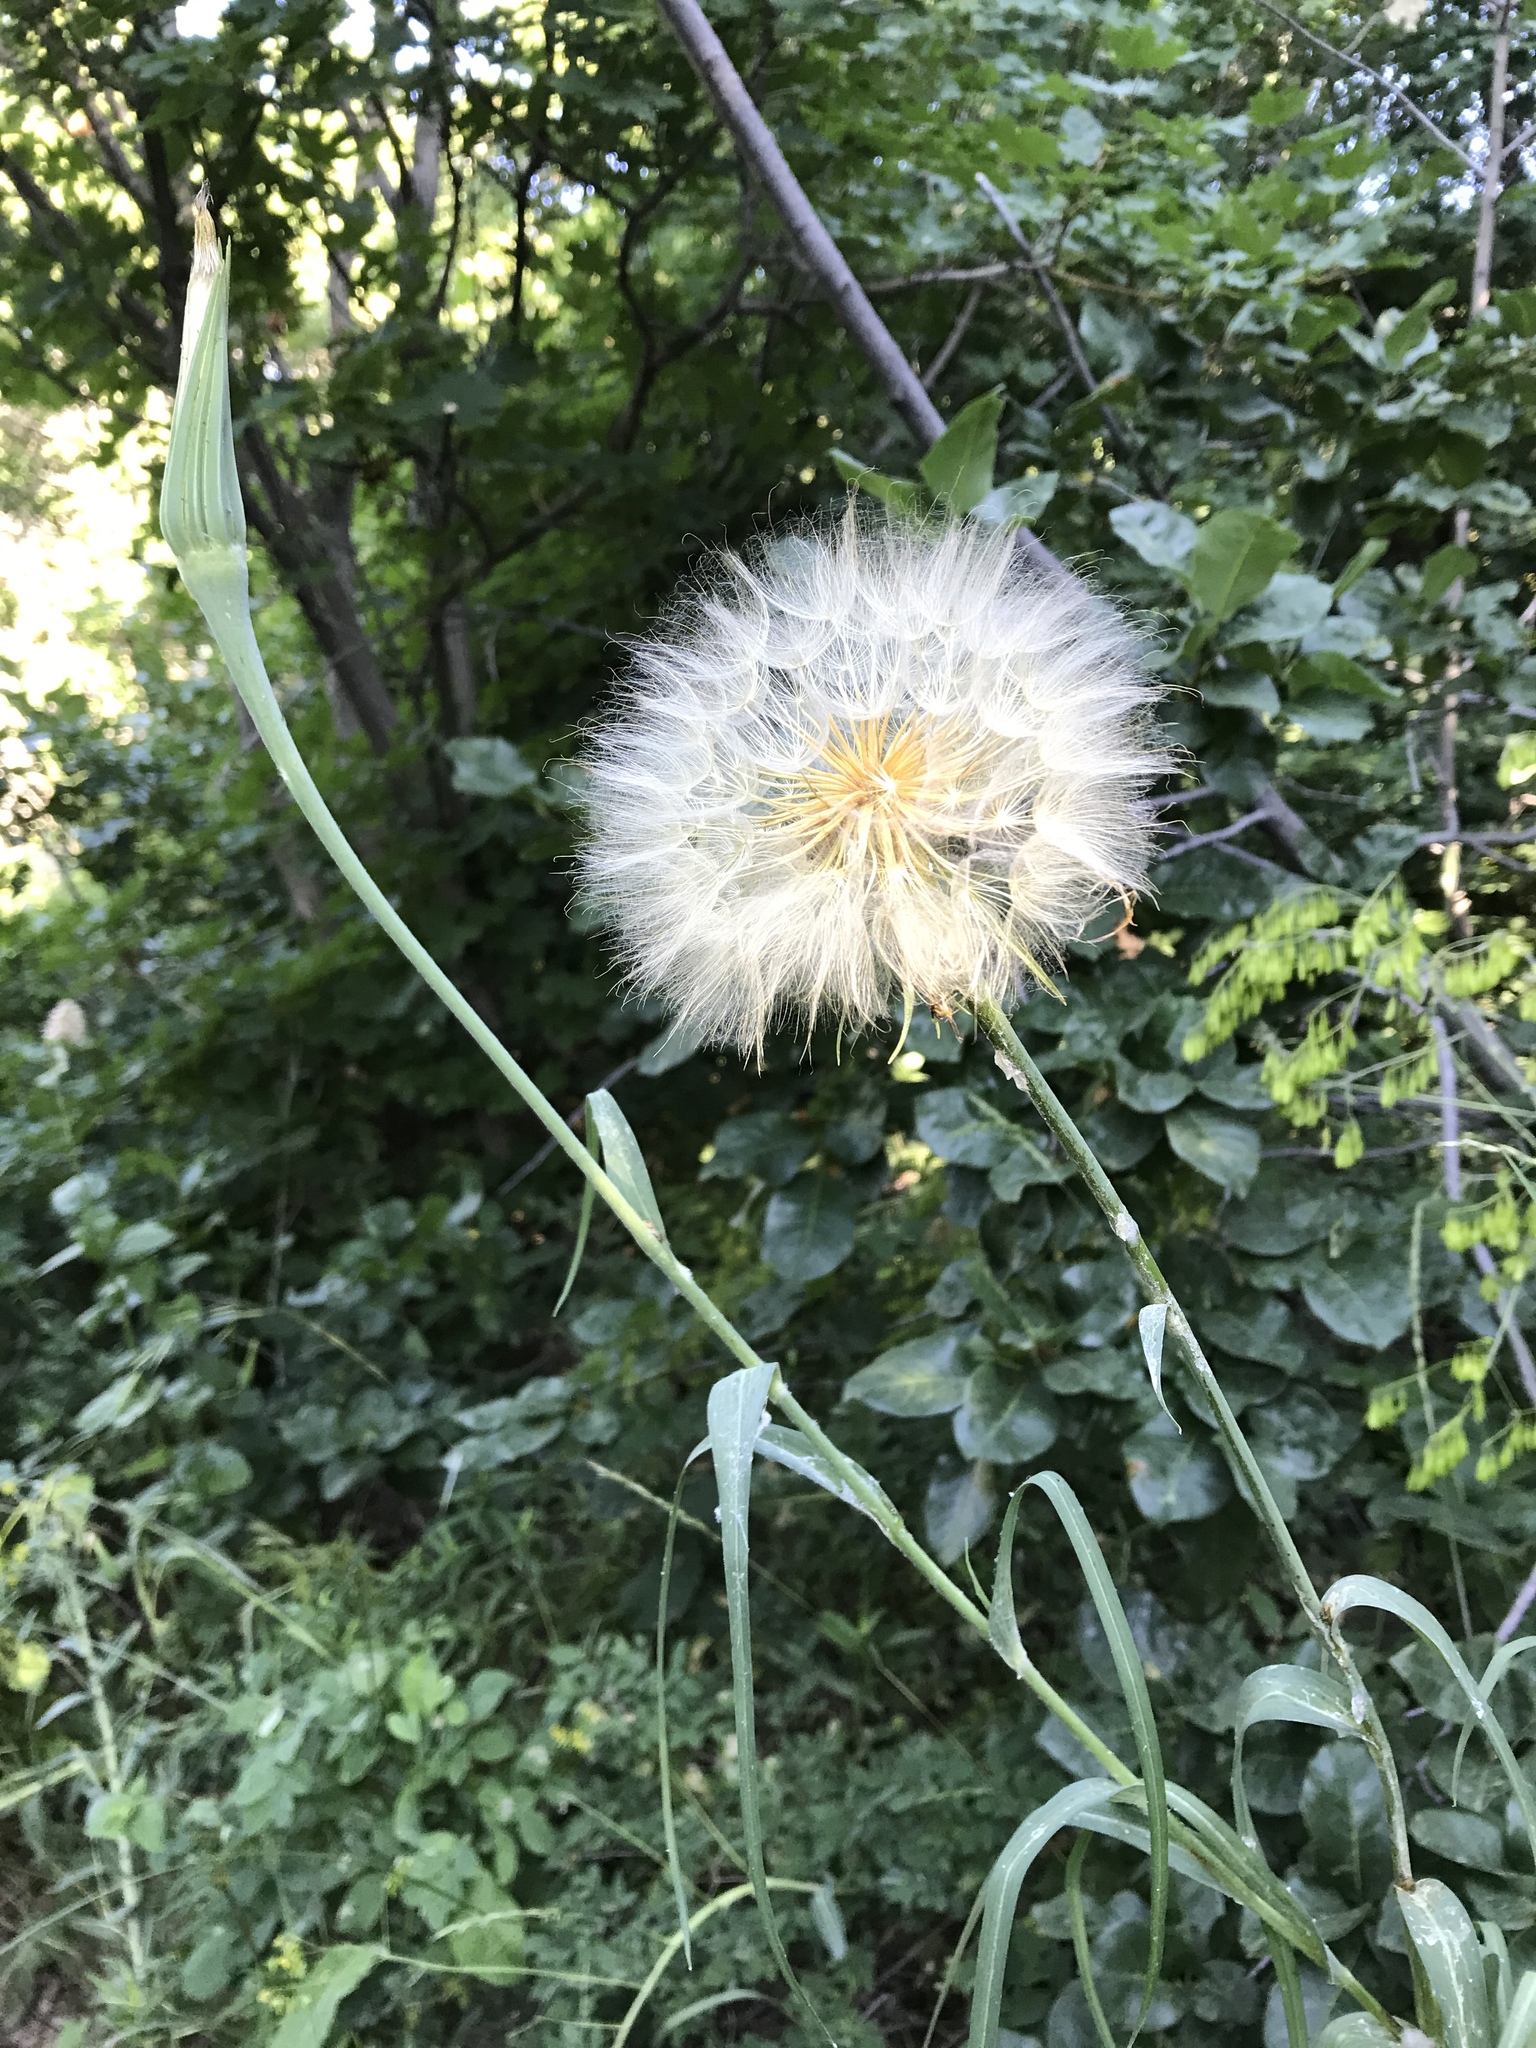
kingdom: Plantae
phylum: Tracheophyta
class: Magnoliopsida
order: Asterales
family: Asteraceae
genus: Tragopogon
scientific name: Tragopogon dubius
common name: Yellow salsify
